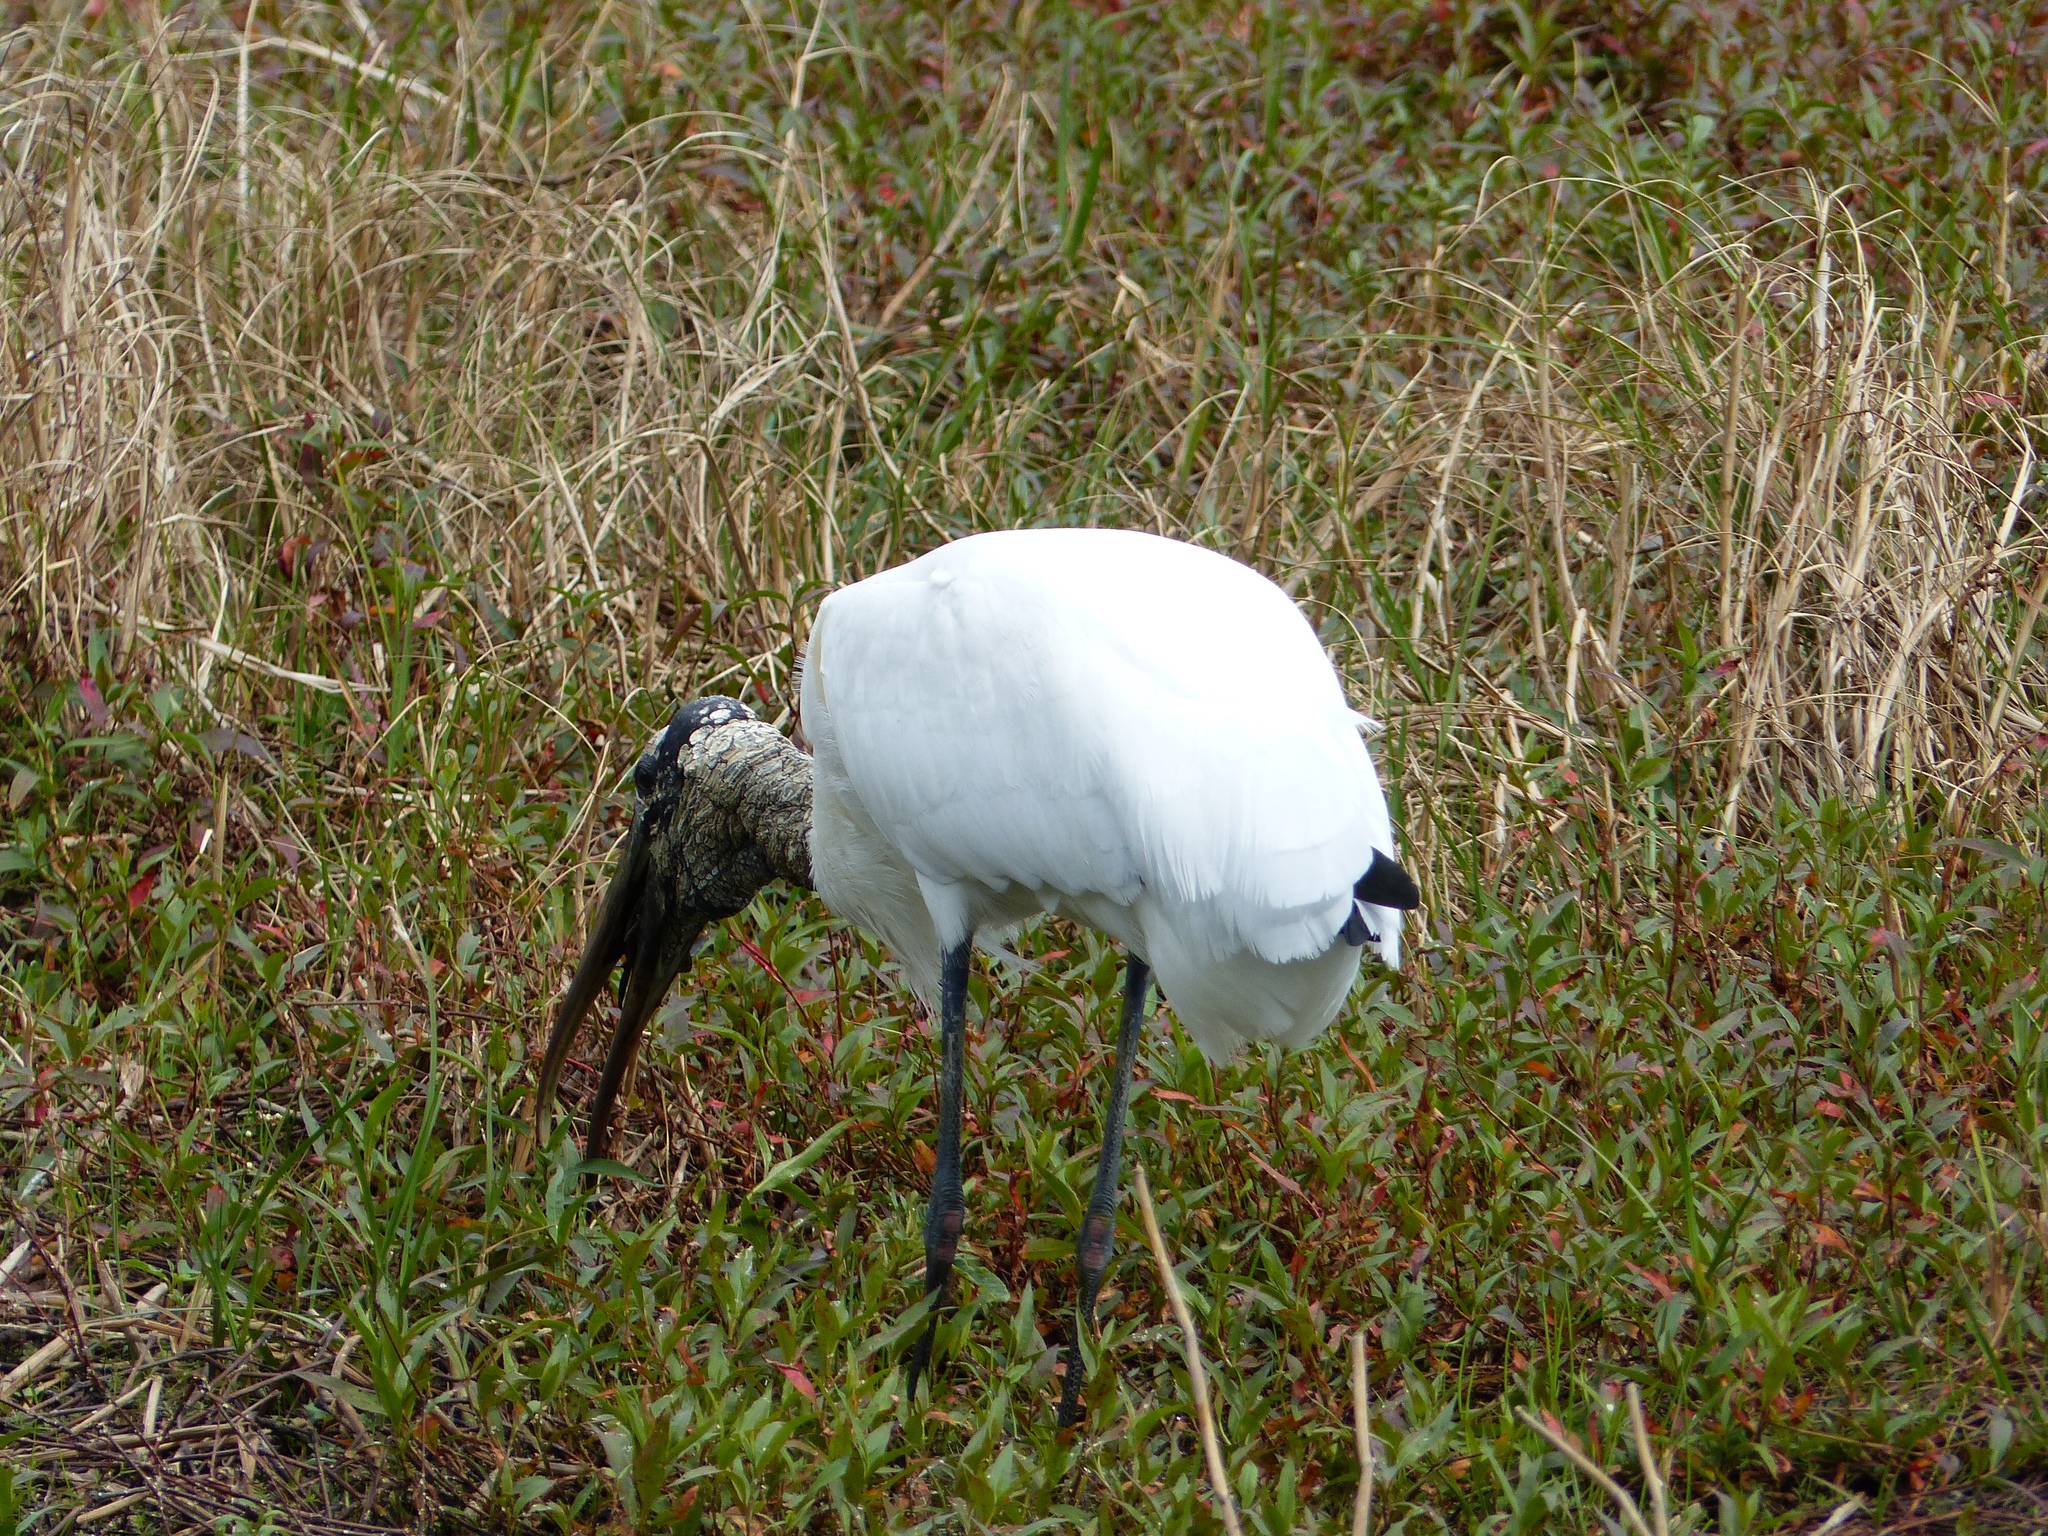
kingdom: Animalia
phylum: Chordata
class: Aves
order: Ciconiiformes
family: Ciconiidae
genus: Mycteria
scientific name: Mycteria americana
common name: Wood stork
